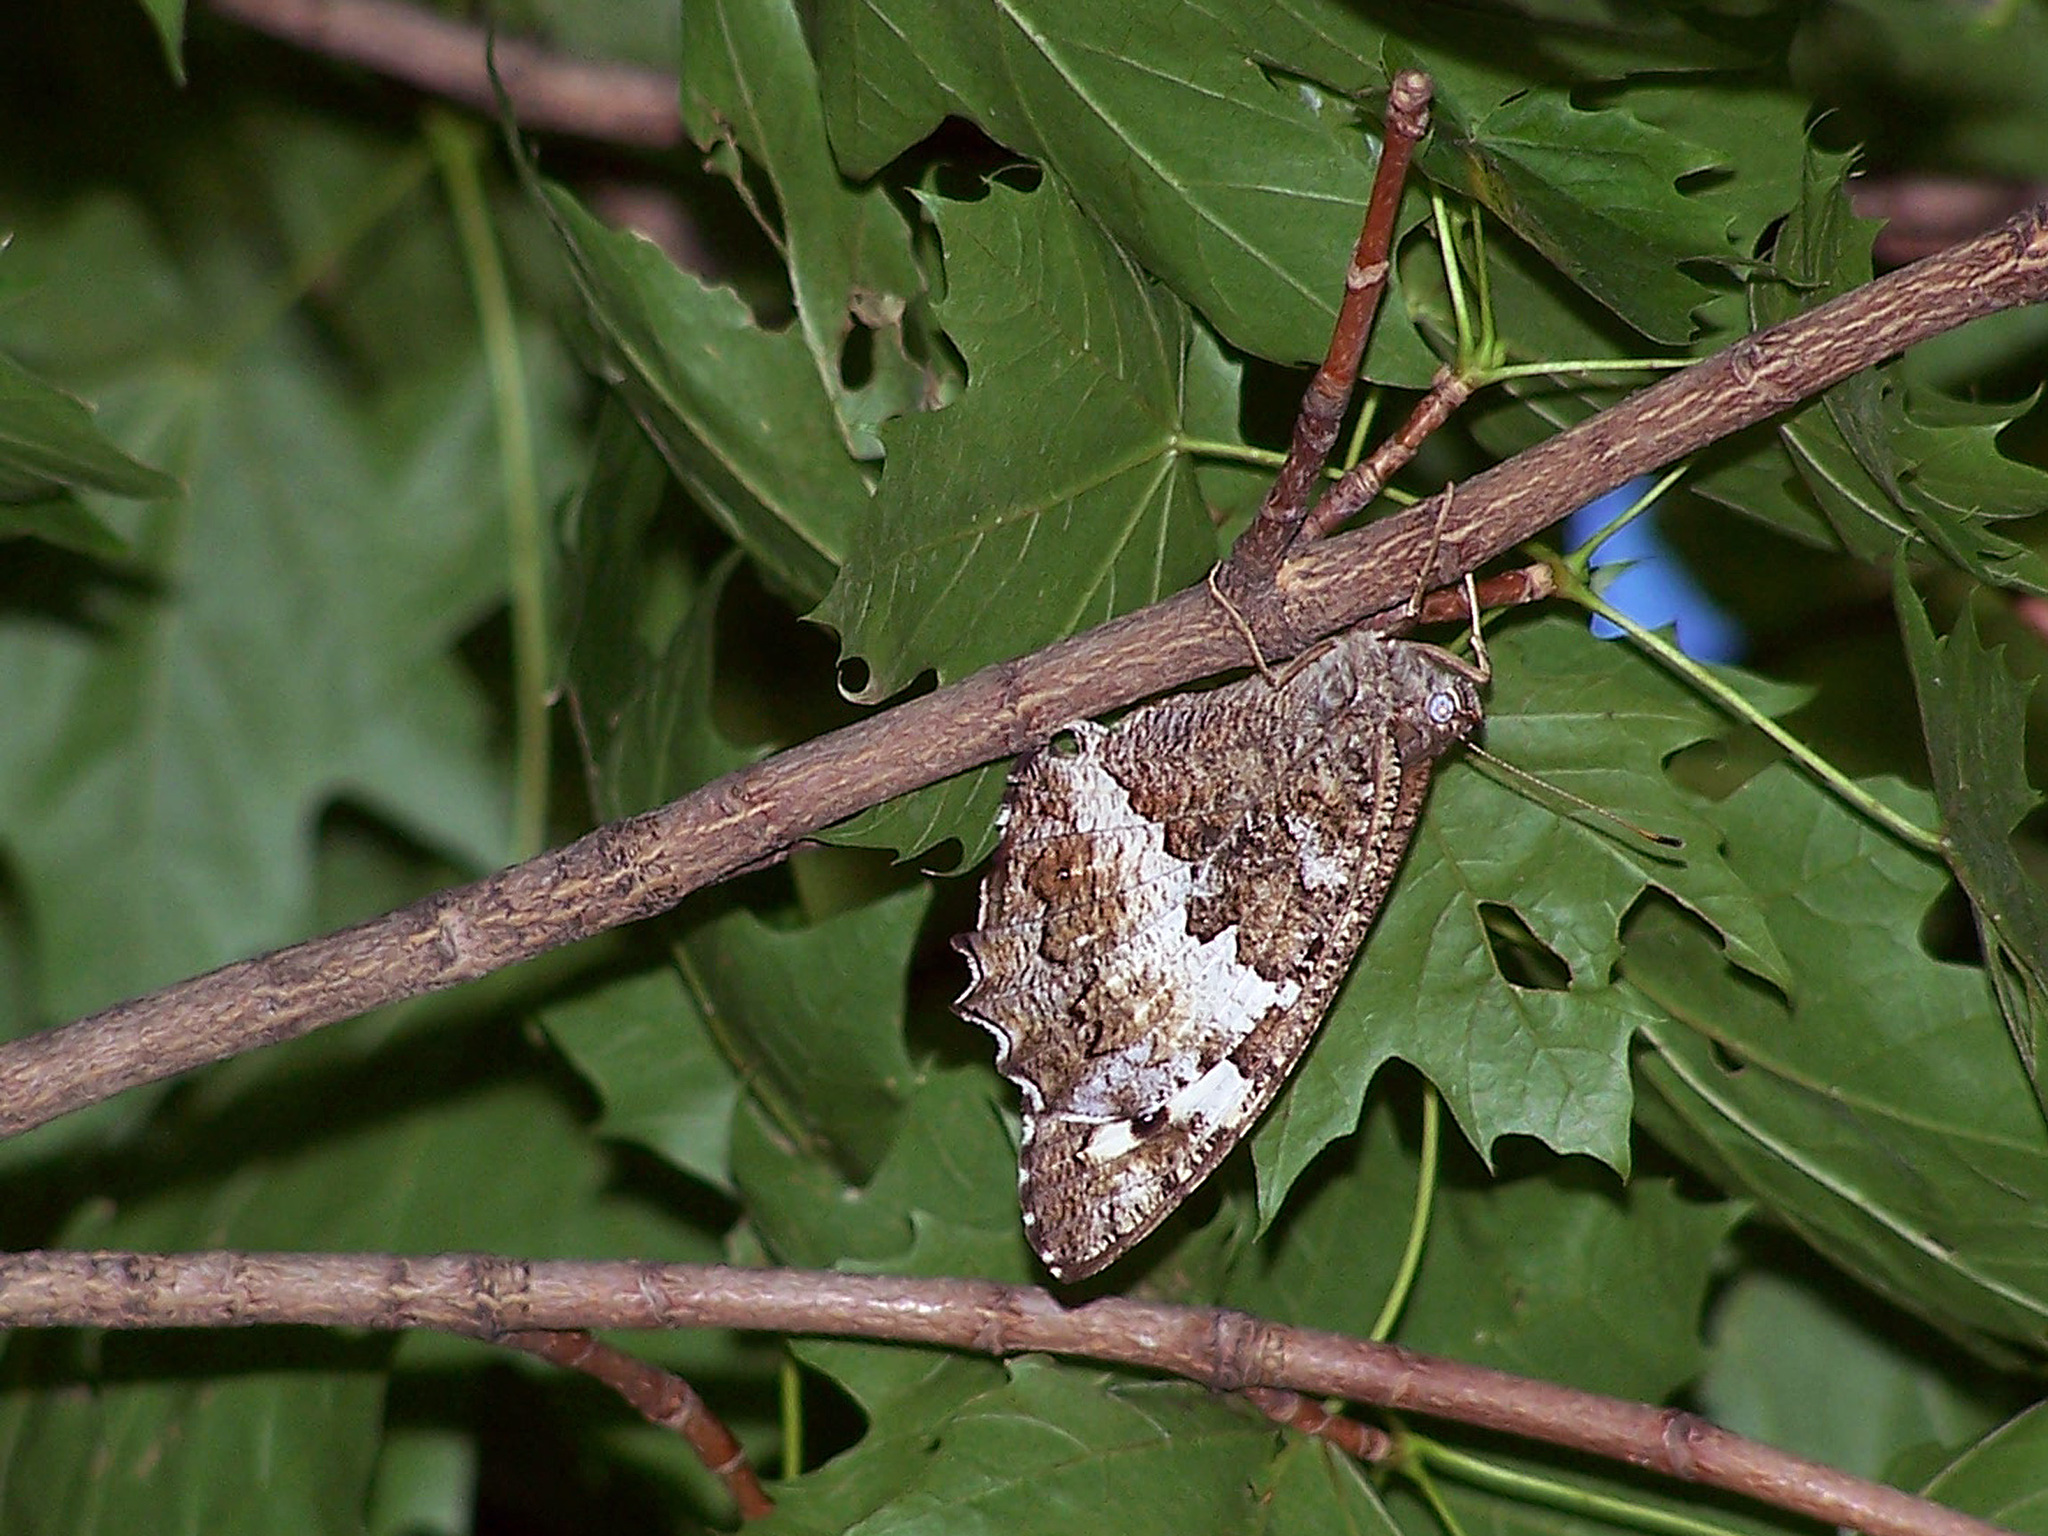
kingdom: Animalia
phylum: Arthropoda
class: Insecta
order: Lepidoptera
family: Lycaenidae
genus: Loweia
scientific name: Loweia tityrus
